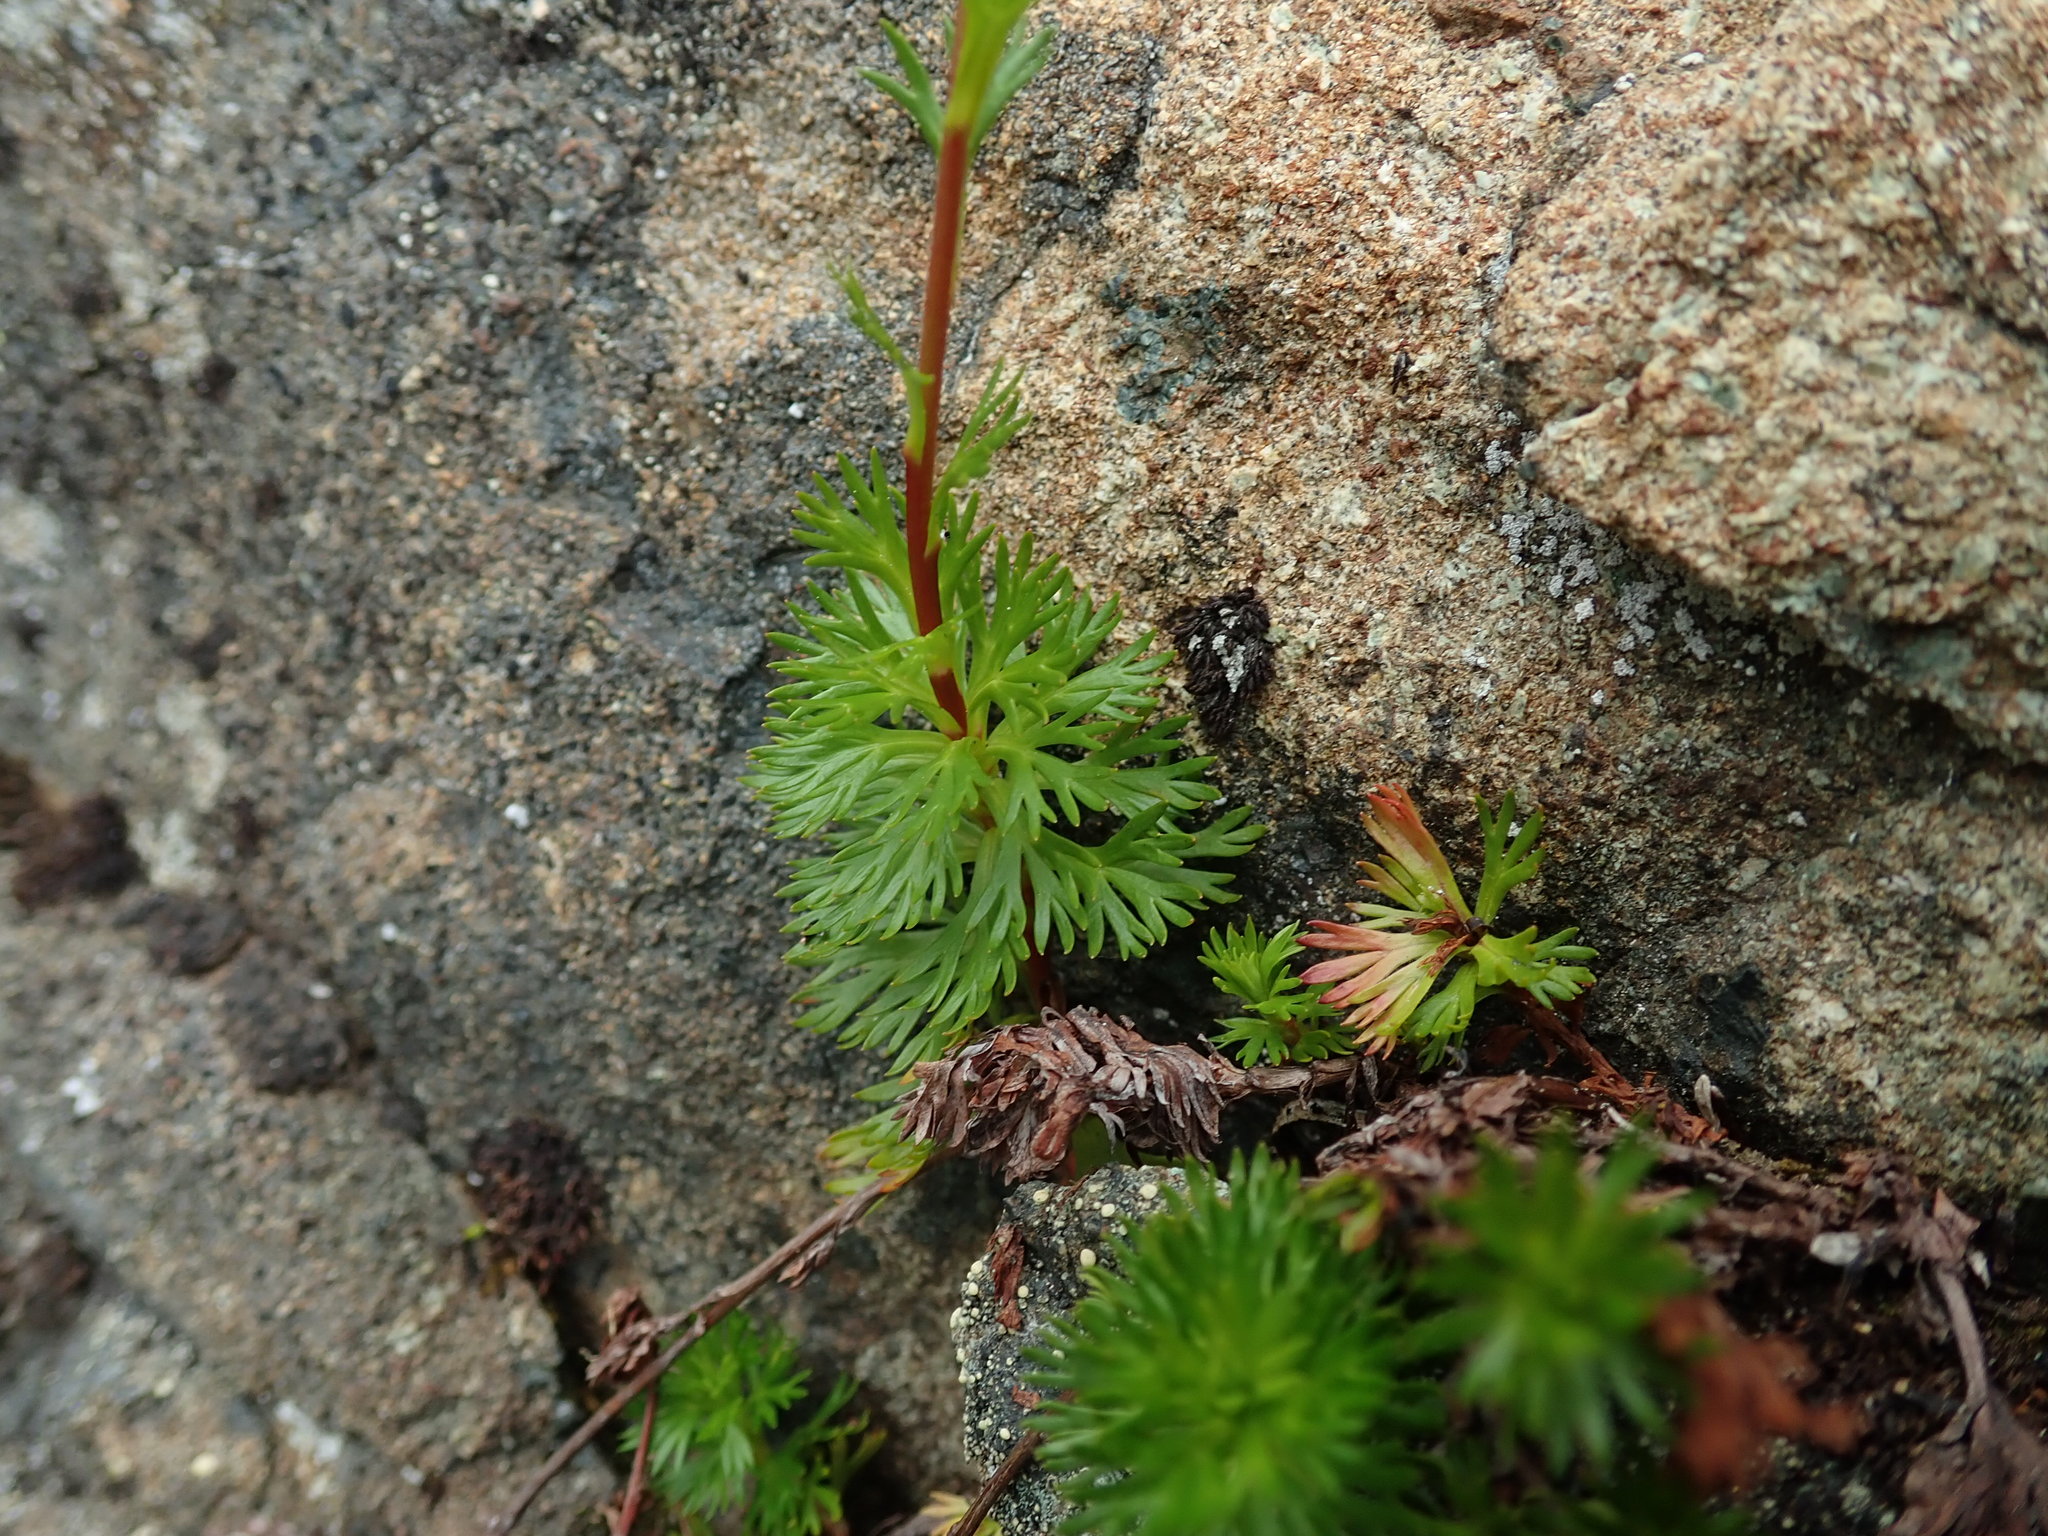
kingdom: Plantae
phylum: Tracheophyta
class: Magnoliopsida
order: Rosales
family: Rosaceae
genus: Luetkea
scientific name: Luetkea pectinata
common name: Partridgefoot
